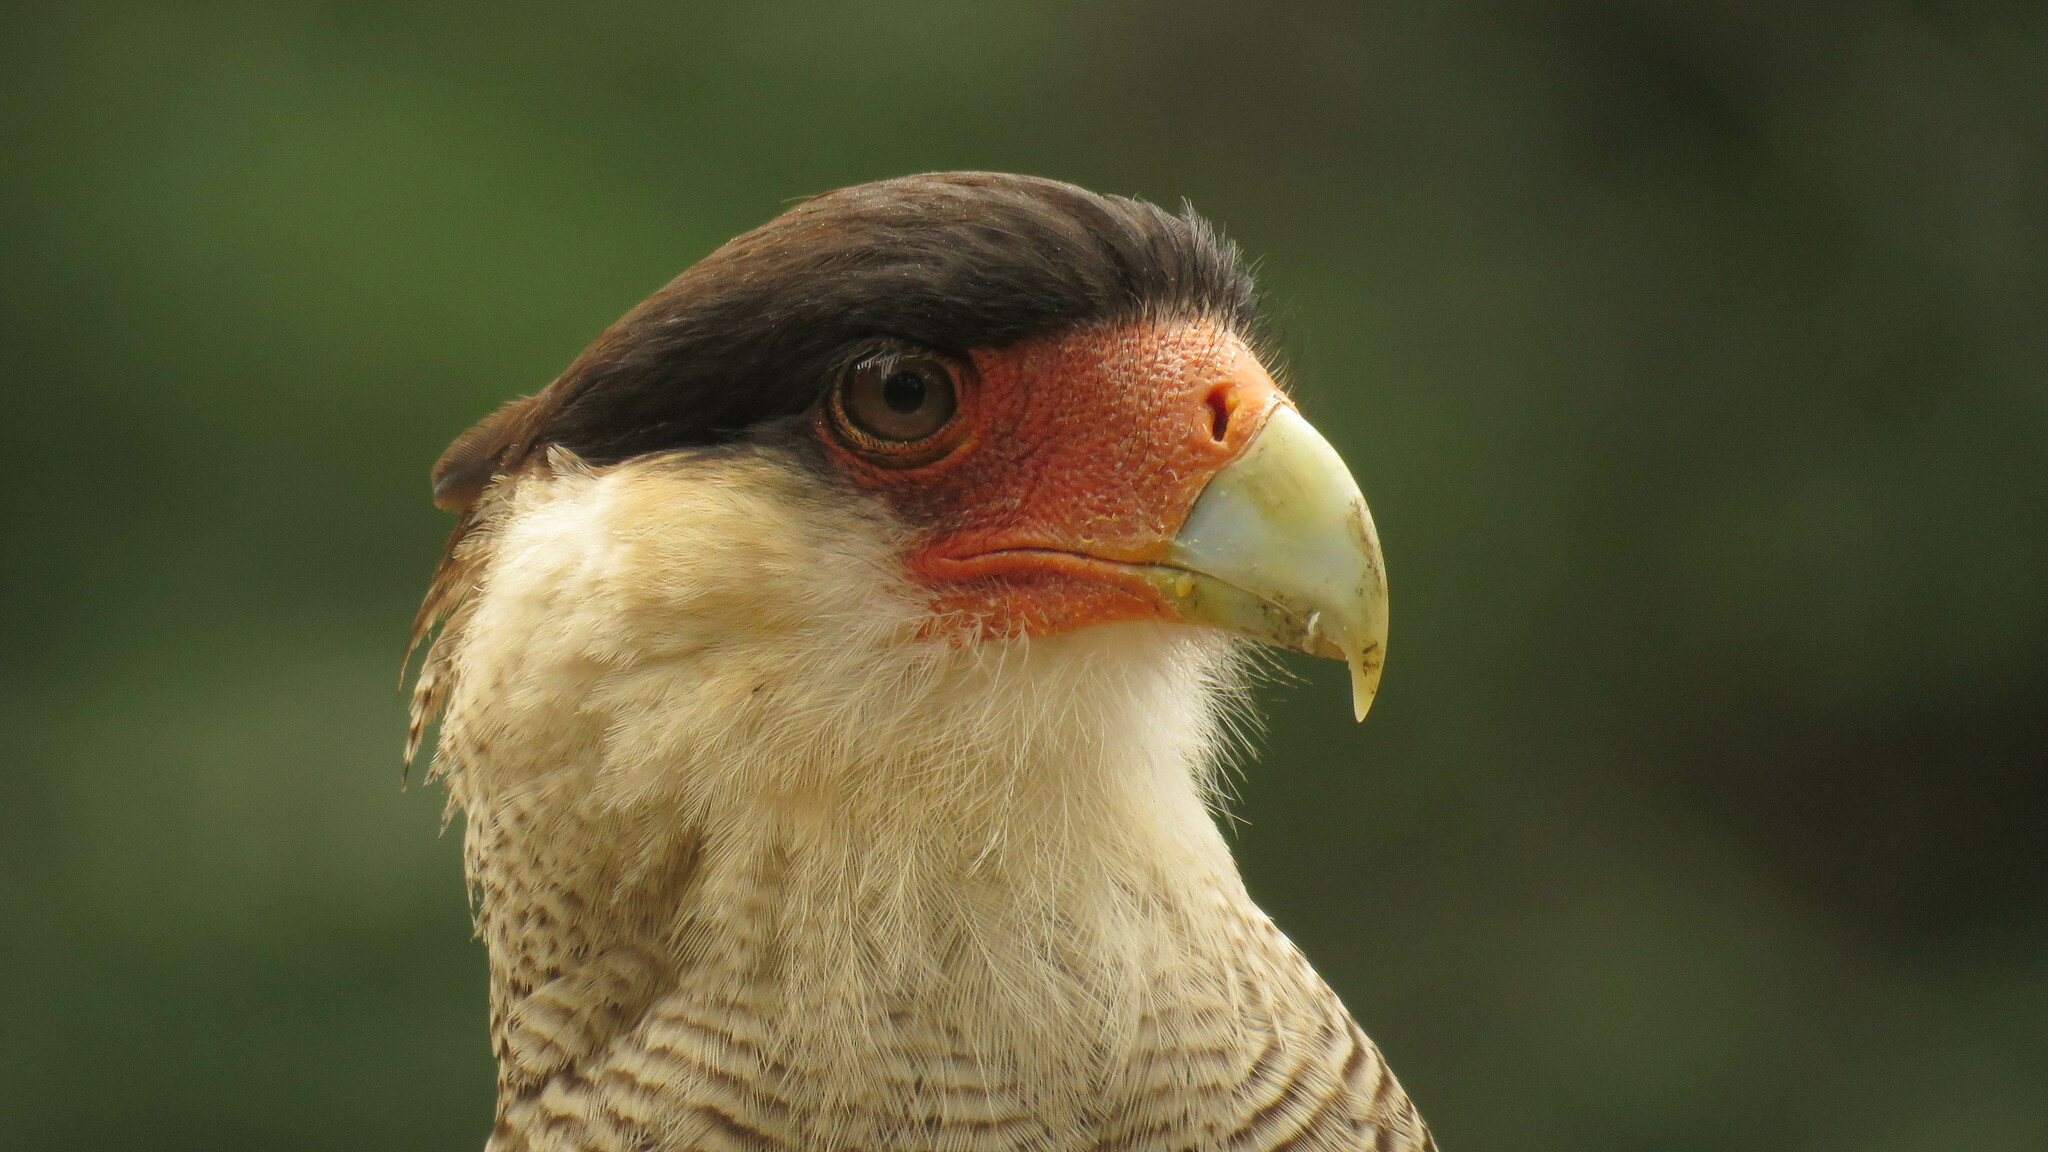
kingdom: Animalia
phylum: Chordata
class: Aves
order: Falconiformes
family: Falconidae
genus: Caracara
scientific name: Caracara plancus
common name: Southern caracara
